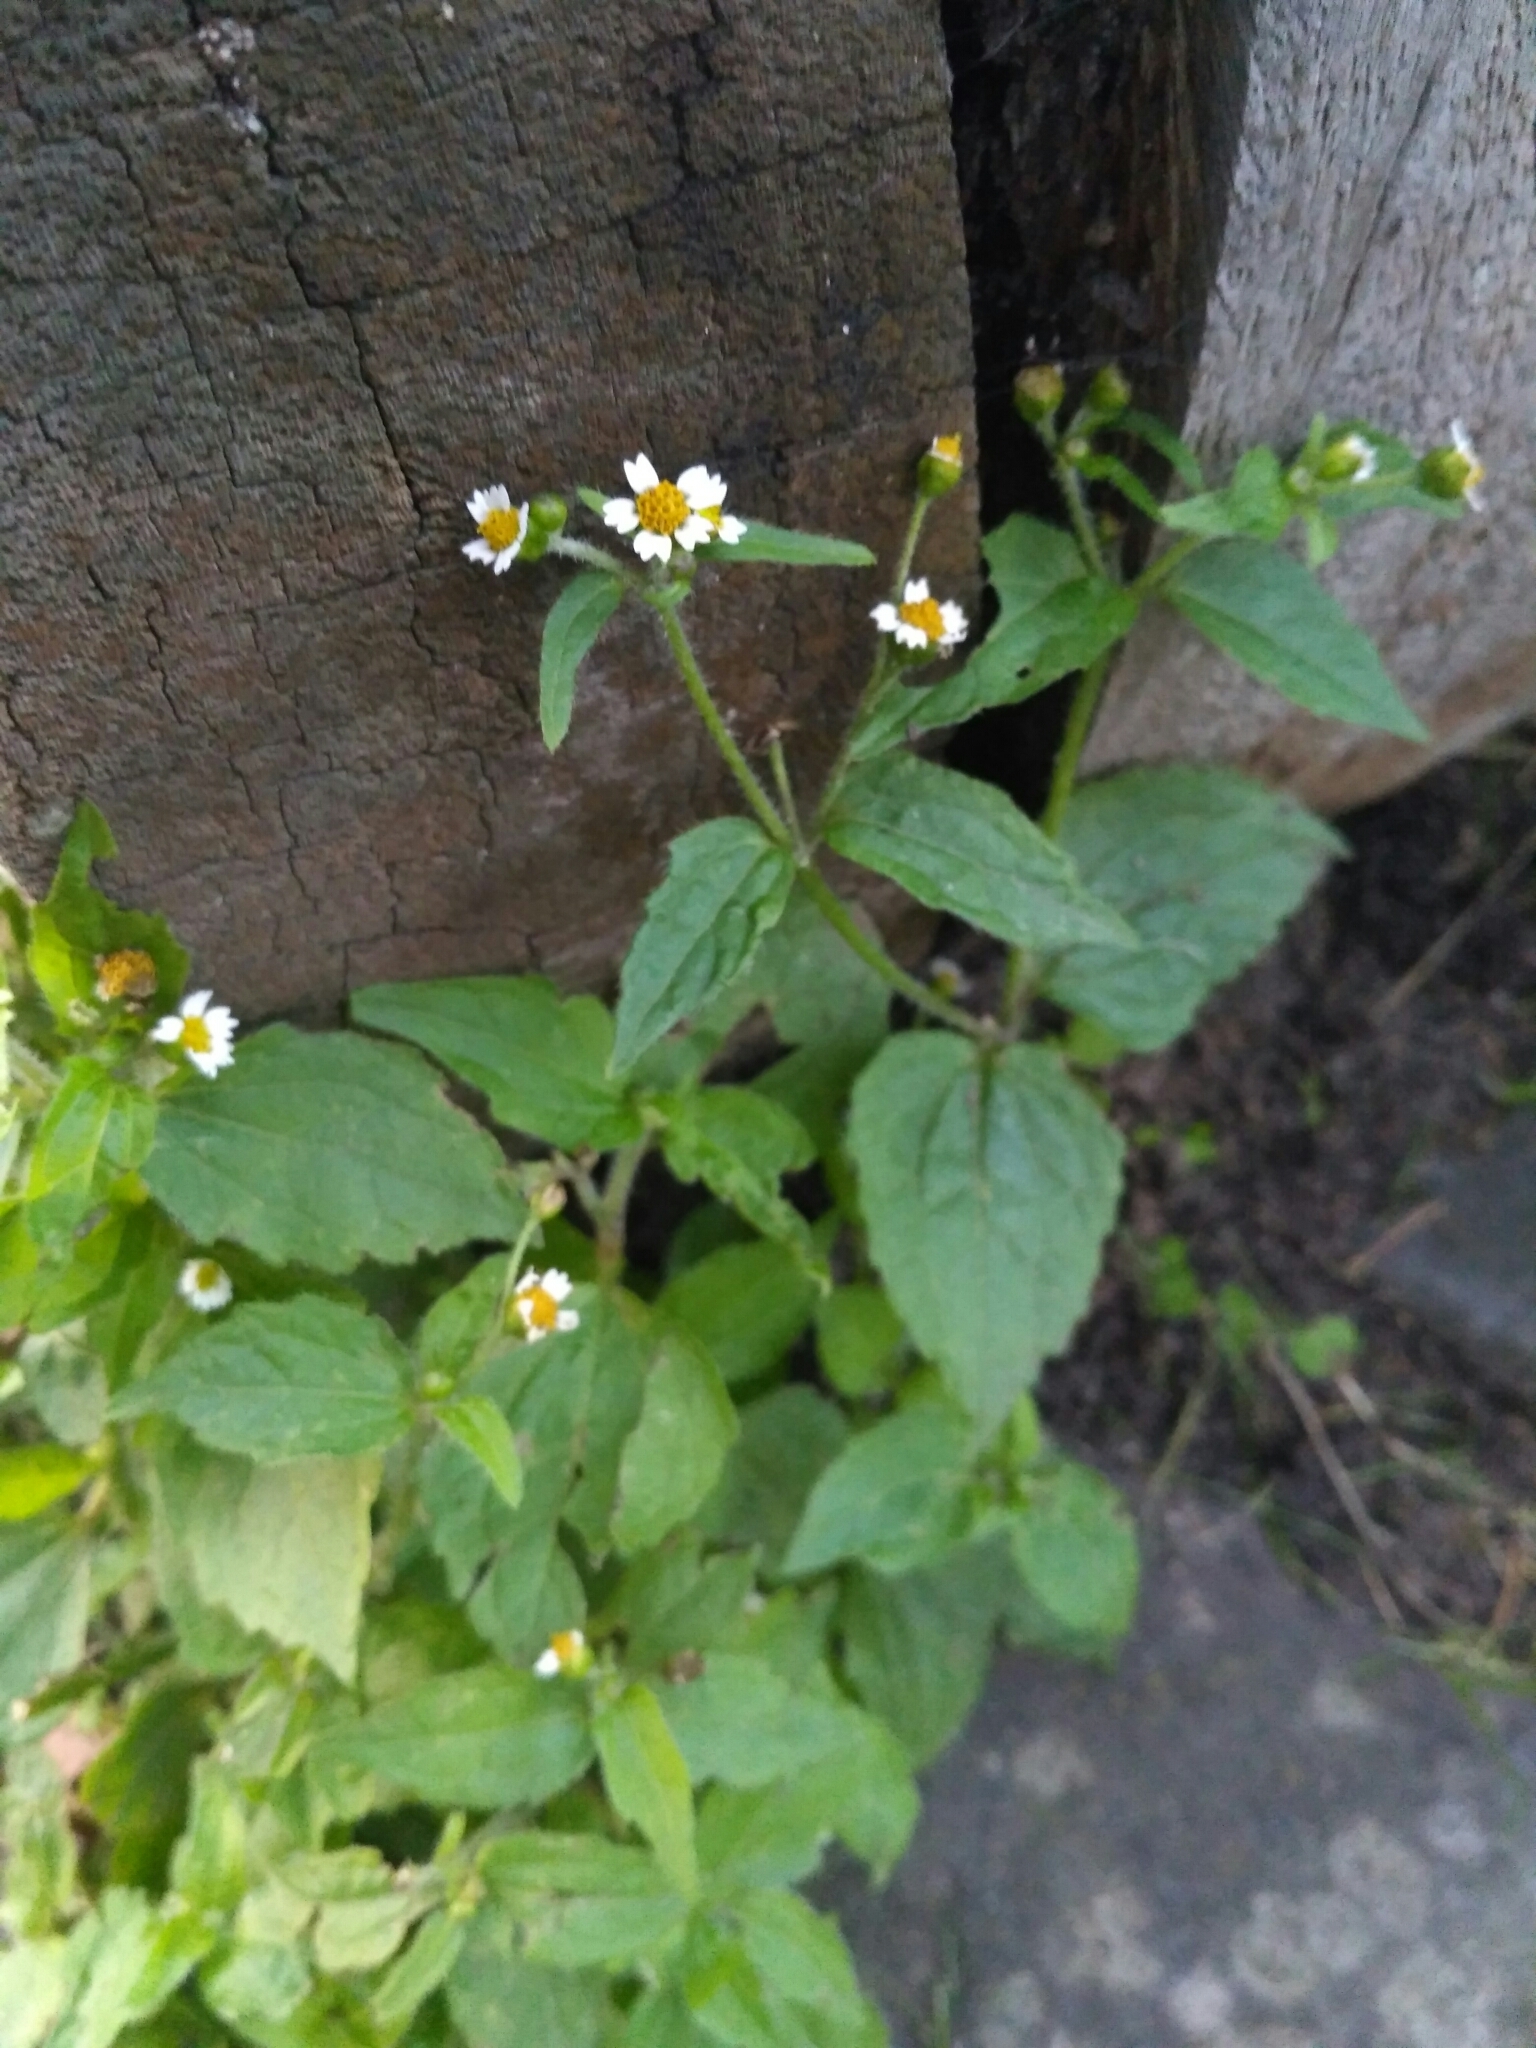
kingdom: Plantae
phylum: Tracheophyta
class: Magnoliopsida
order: Asterales
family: Asteraceae
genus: Galinsoga
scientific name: Galinsoga quadriradiata
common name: Shaggy soldier
